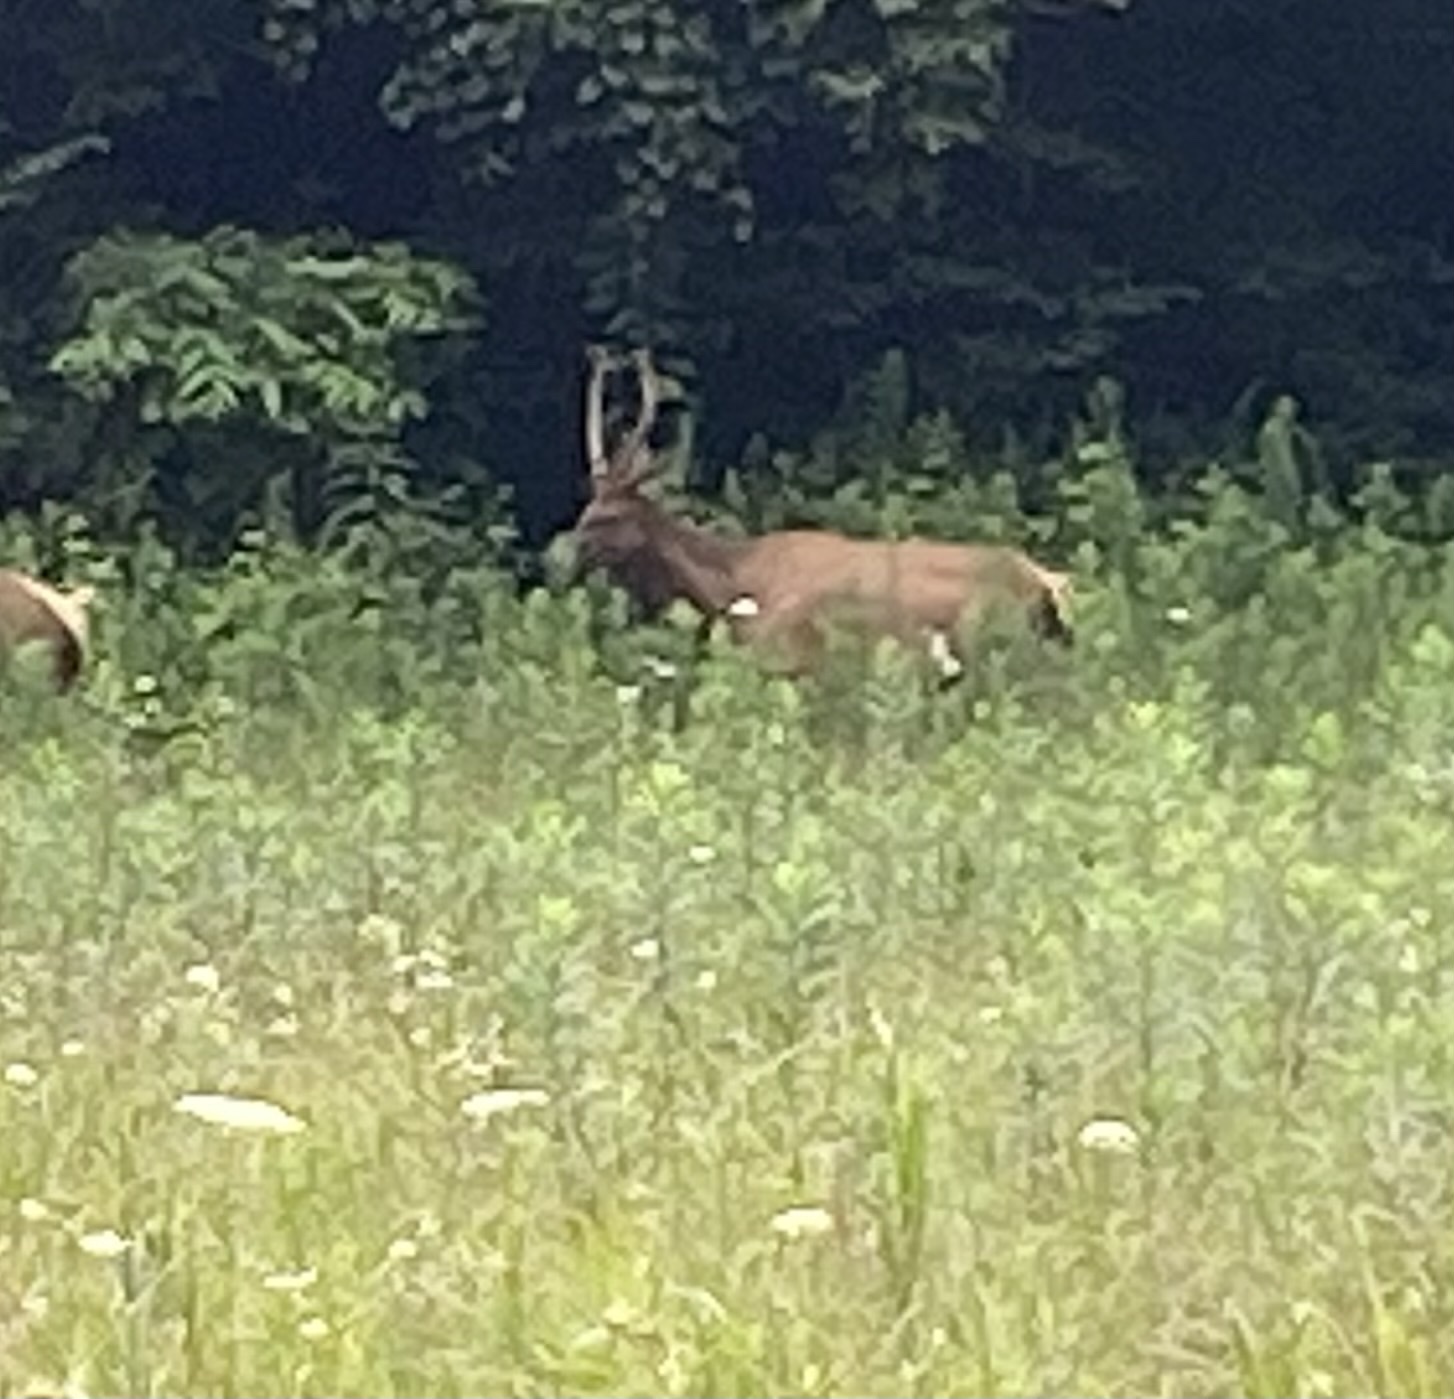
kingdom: Animalia
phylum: Chordata
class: Mammalia
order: Artiodactyla
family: Cervidae
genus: Cervus
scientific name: Cervus elaphus
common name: Red deer
